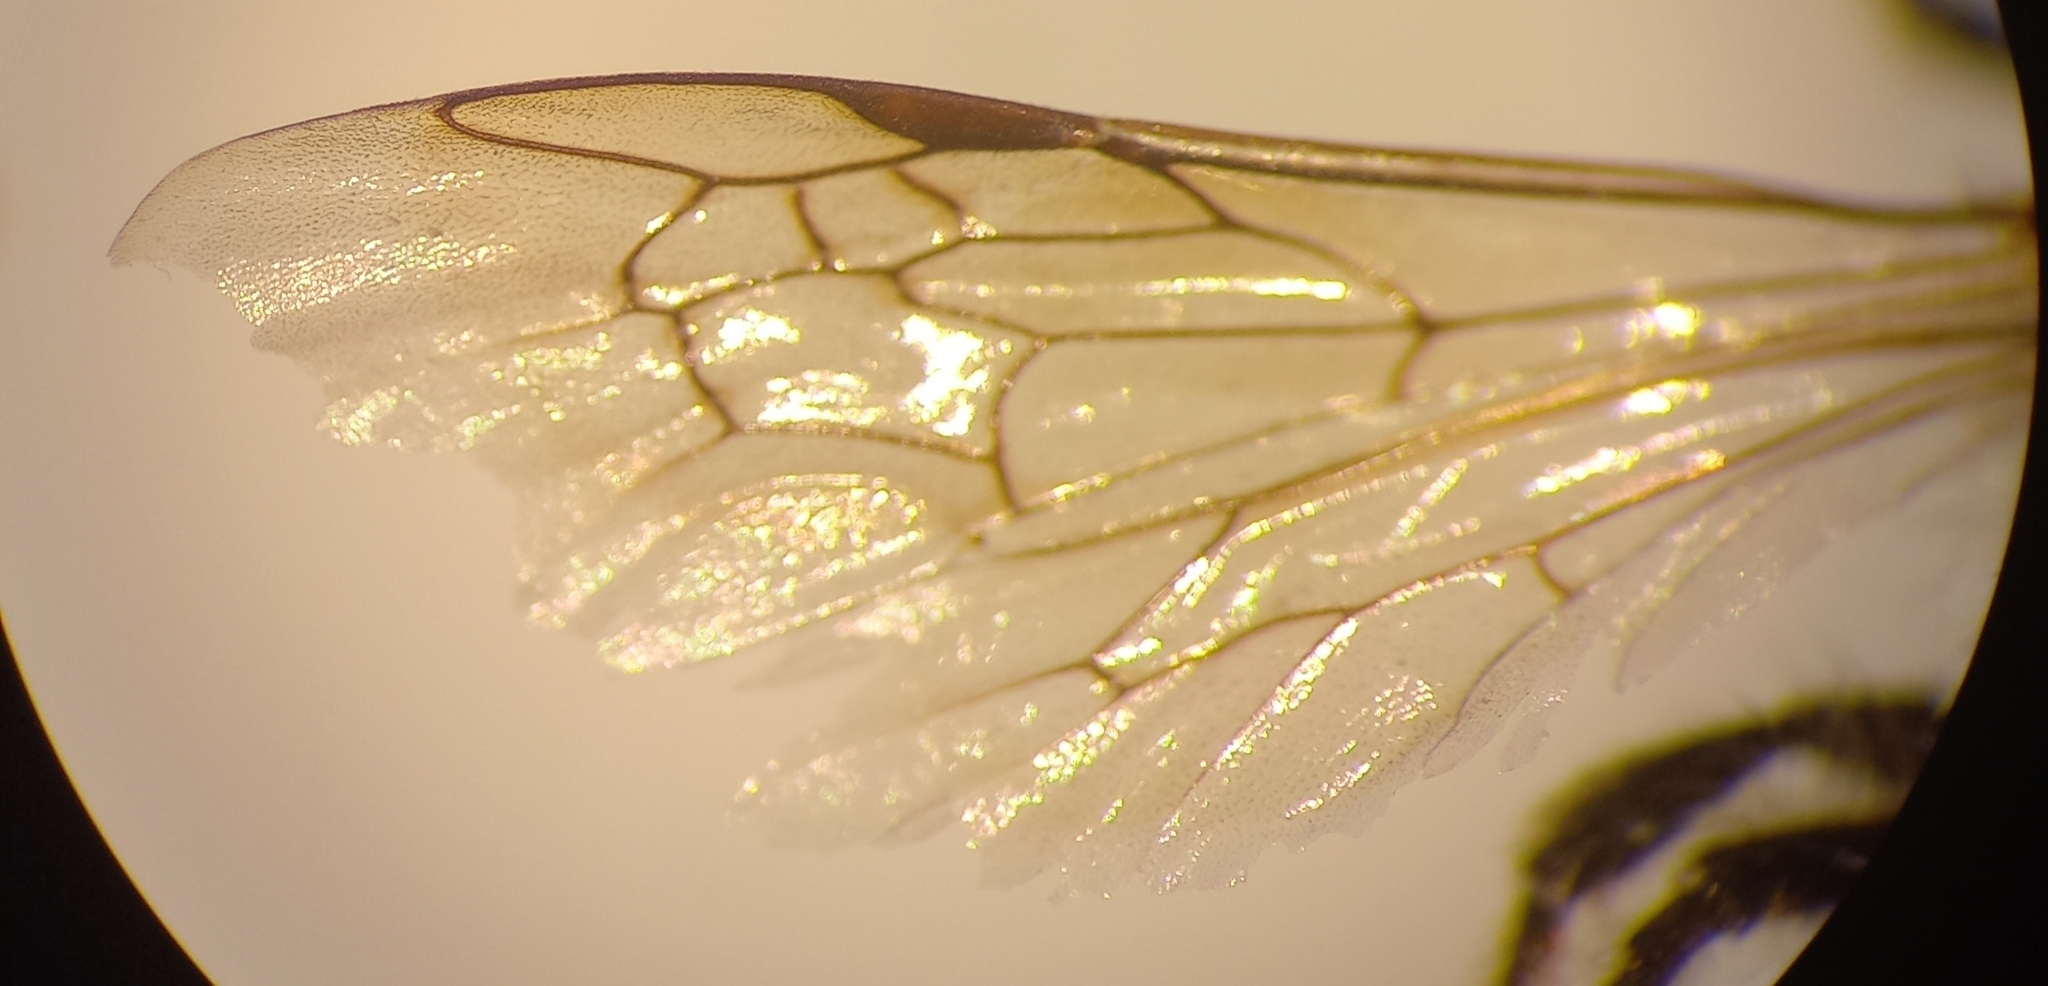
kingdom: Animalia
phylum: Arthropoda
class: Insecta
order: Hymenoptera
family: Andrenidae
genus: Andrena
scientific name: Andrena flavipes
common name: Yellow-legged mining bee
